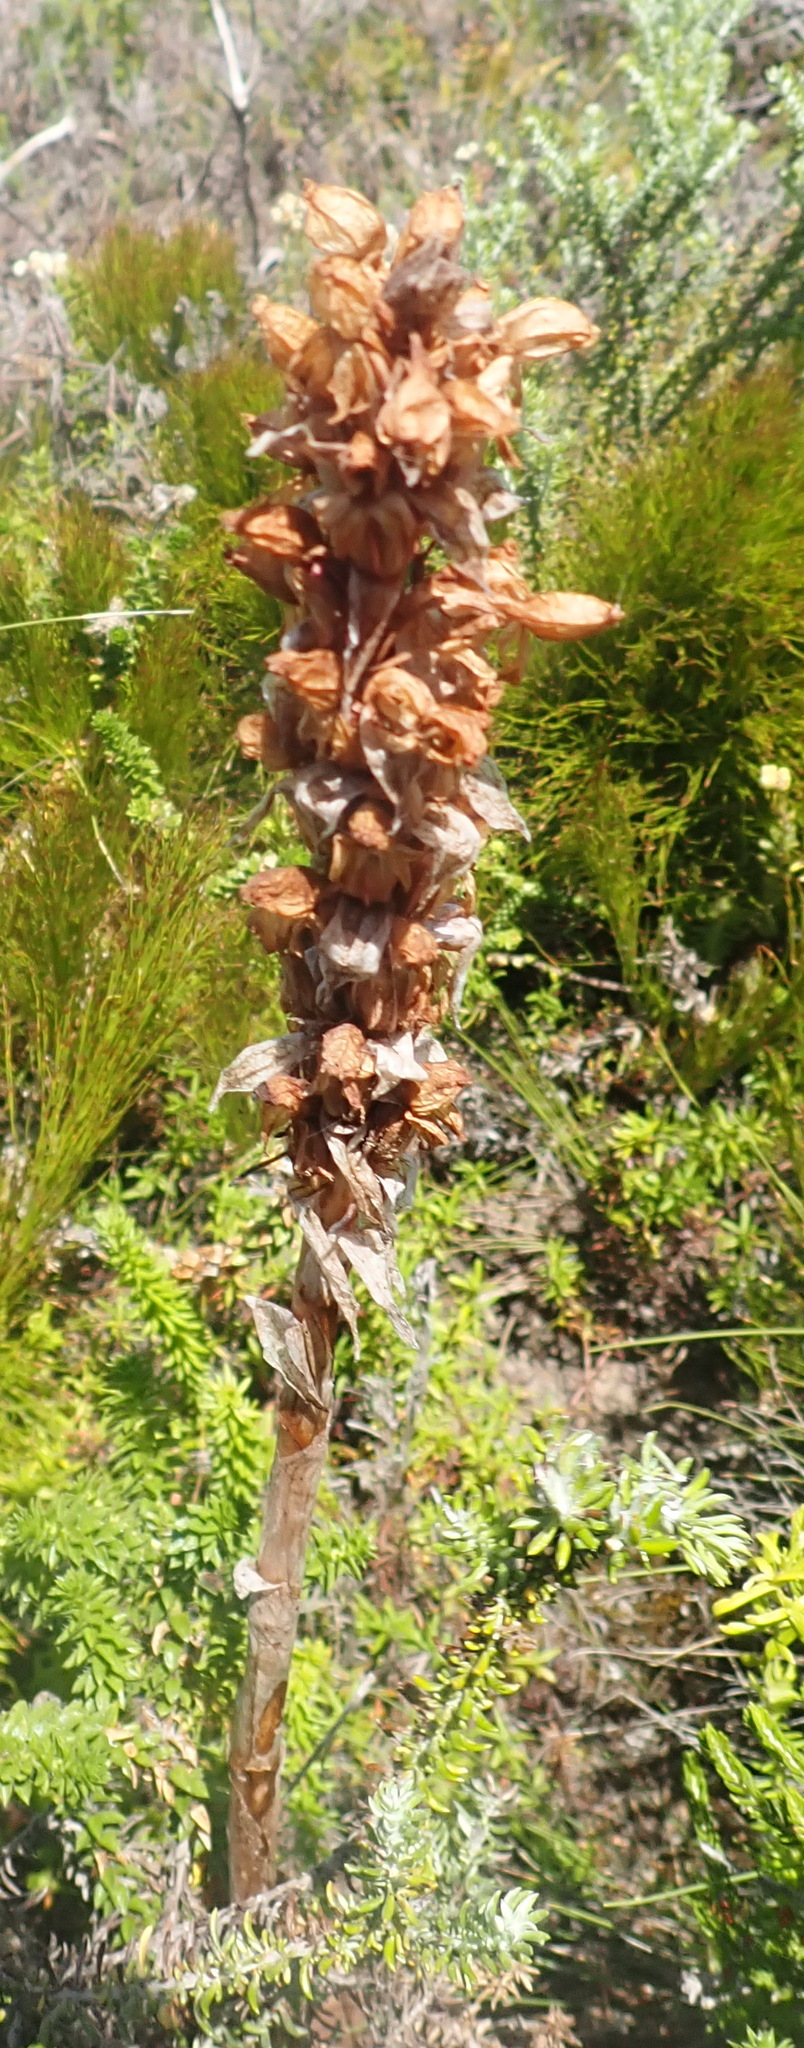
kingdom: Plantae
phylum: Tracheophyta
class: Liliopsida
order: Asparagales
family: Orchidaceae
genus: Satyrium
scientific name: Satyrium princeps
